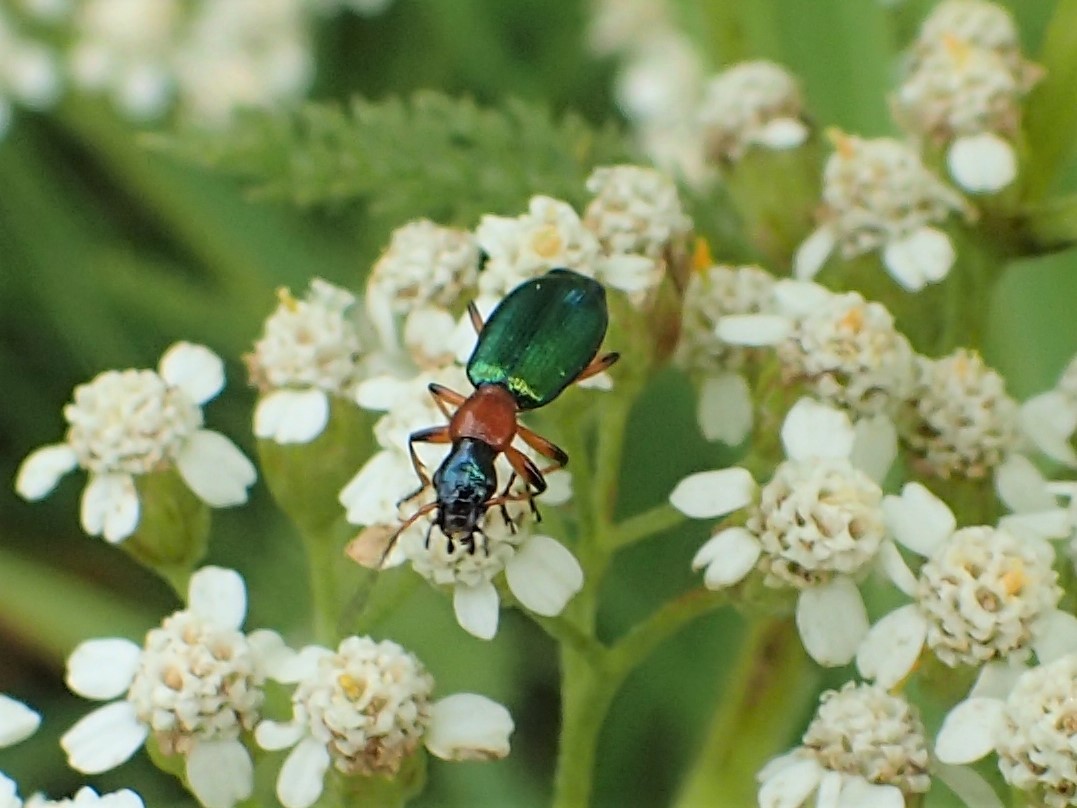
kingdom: Animalia
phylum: Arthropoda
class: Insecta
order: Coleoptera
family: Carabidae
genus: Calleida
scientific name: Calleida punctata
